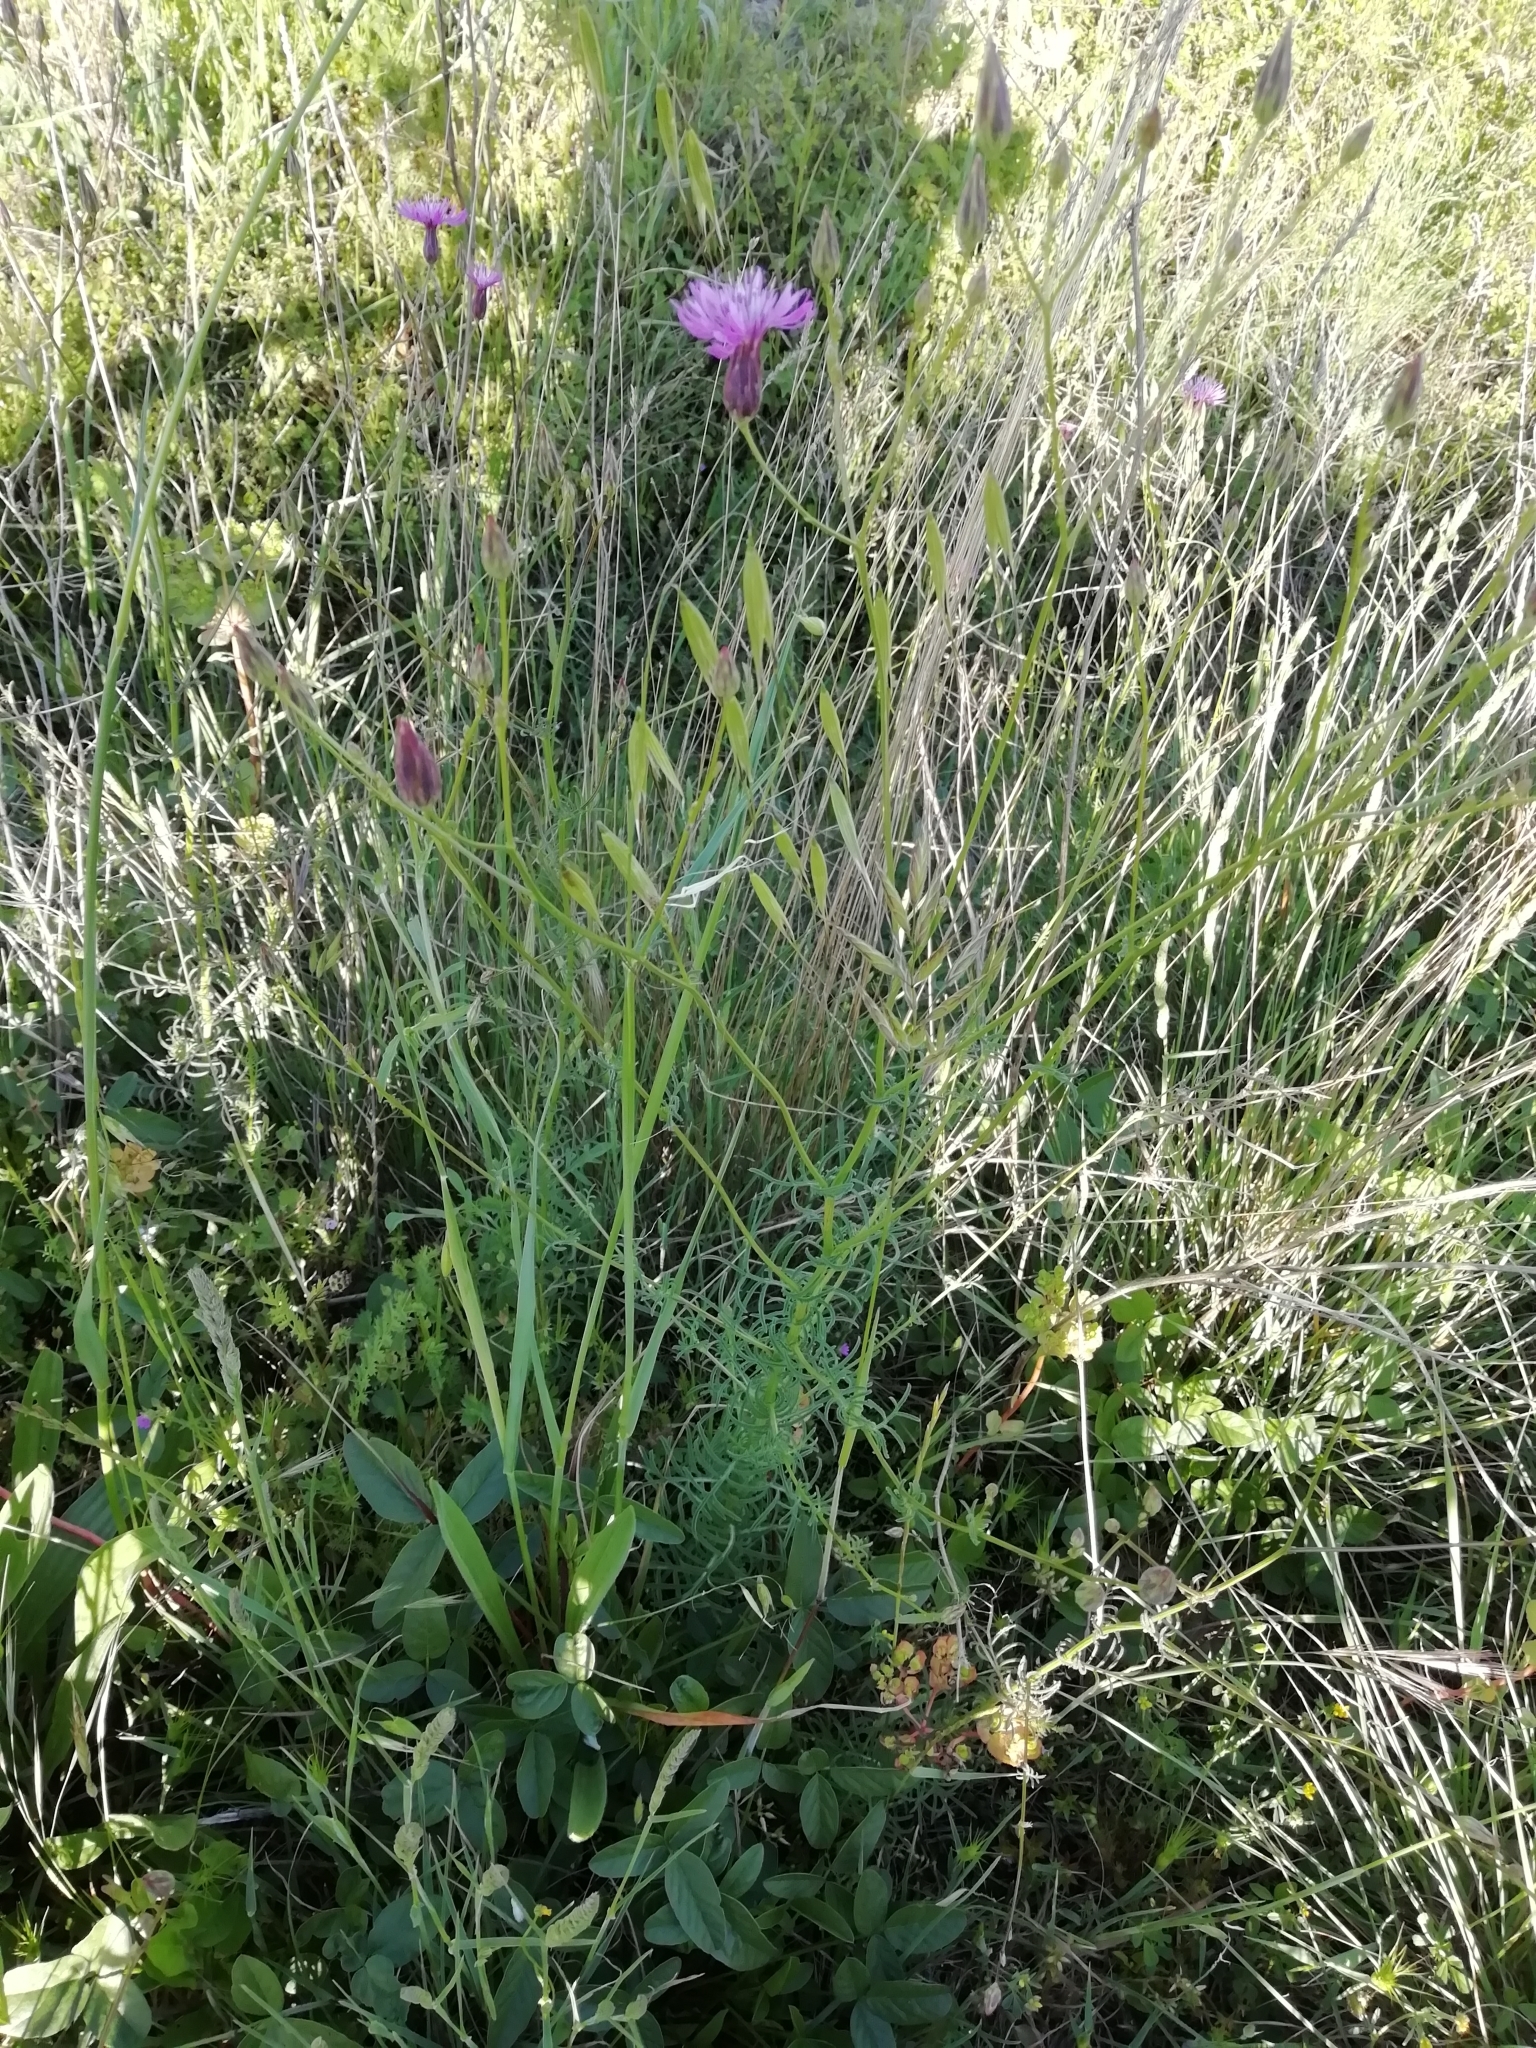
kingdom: Plantae
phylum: Tracheophyta
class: Magnoliopsida
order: Asterales
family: Asteraceae
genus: Crupina
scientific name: Crupina vulgaris
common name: Common crupina
